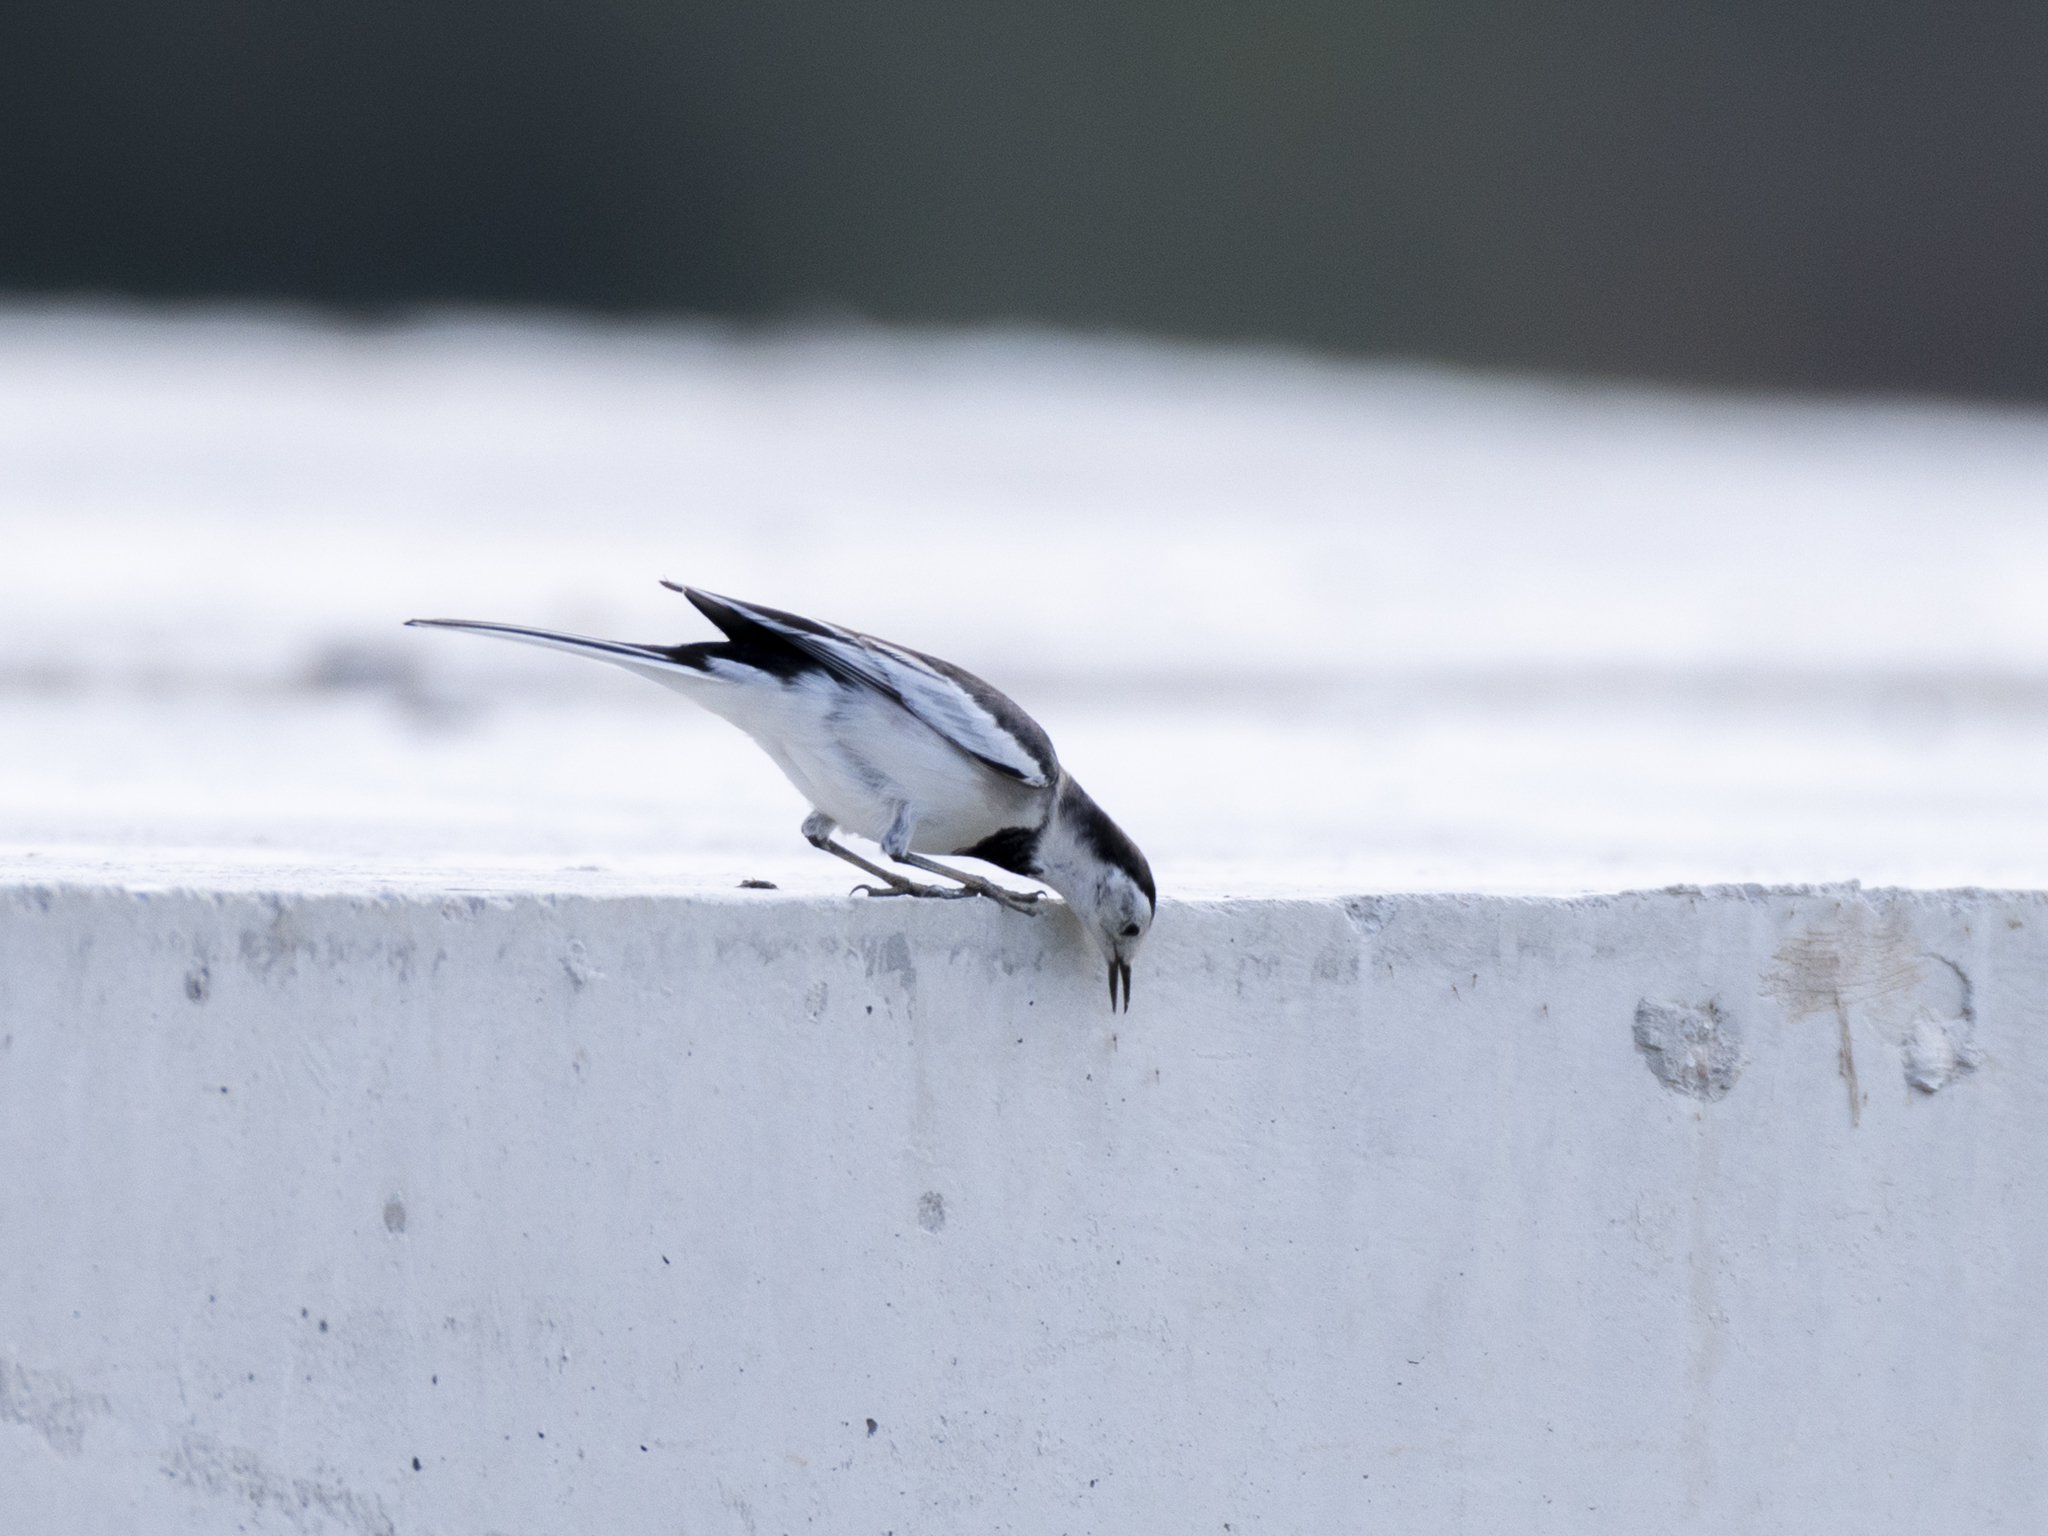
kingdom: Animalia
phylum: Chordata
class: Aves
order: Passeriformes
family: Motacillidae
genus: Motacilla
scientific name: Motacilla alba
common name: White wagtail
